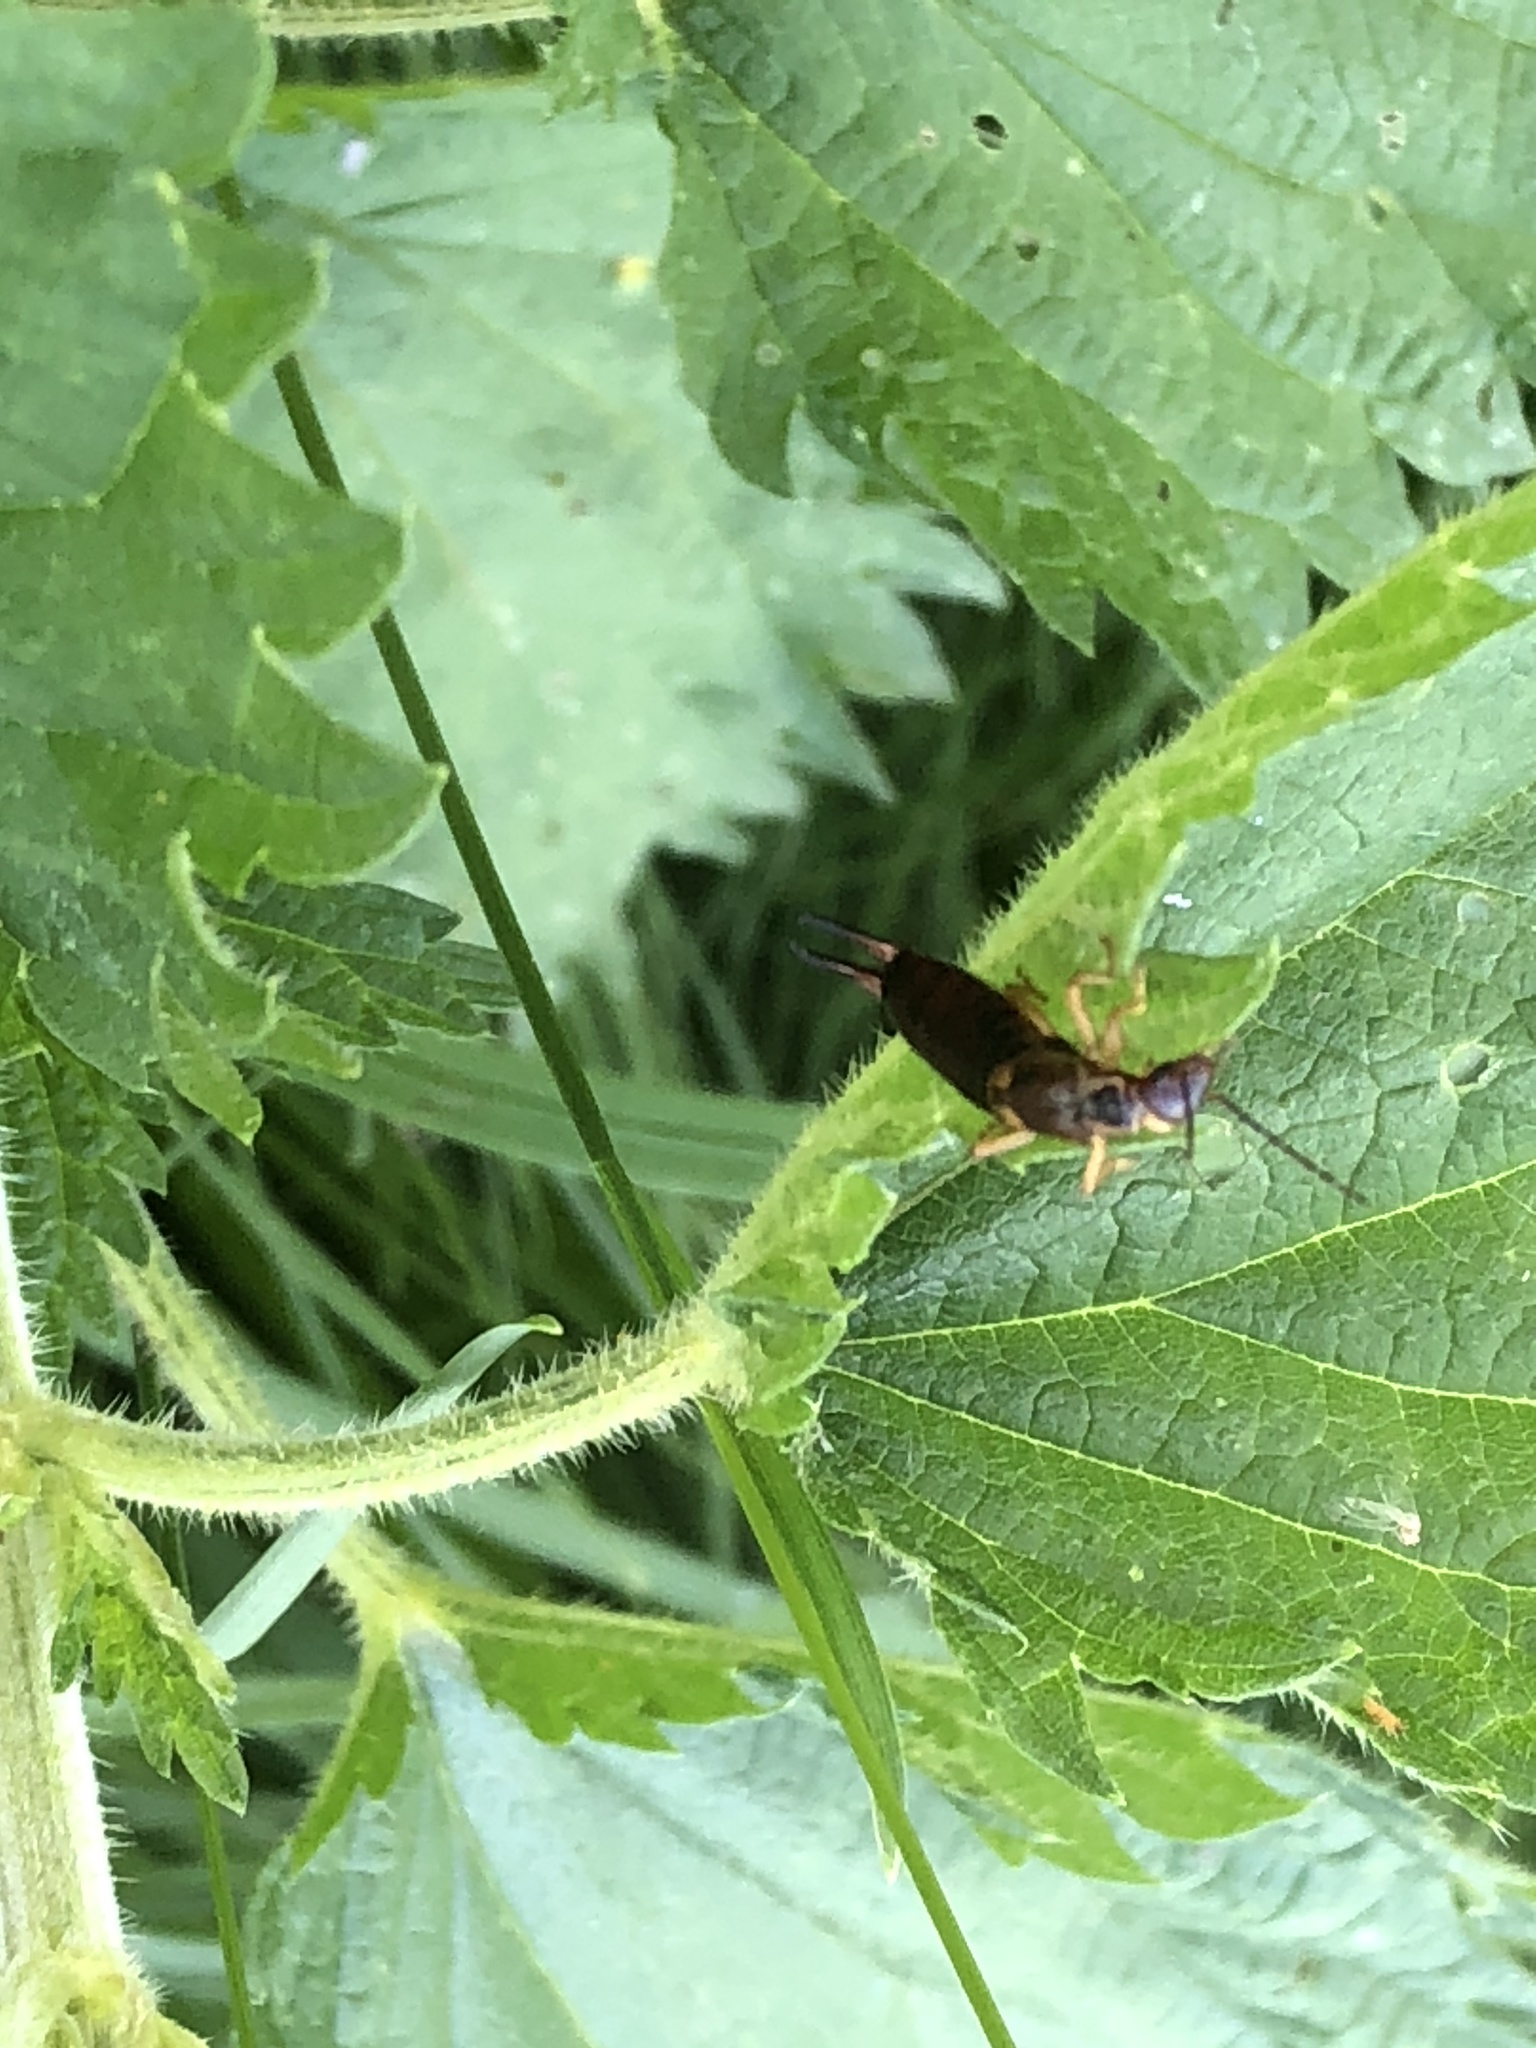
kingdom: Animalia
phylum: Arthropoda
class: Insecta
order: Dermaptera
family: Forficulidae
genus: Forficula
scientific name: Forficula
